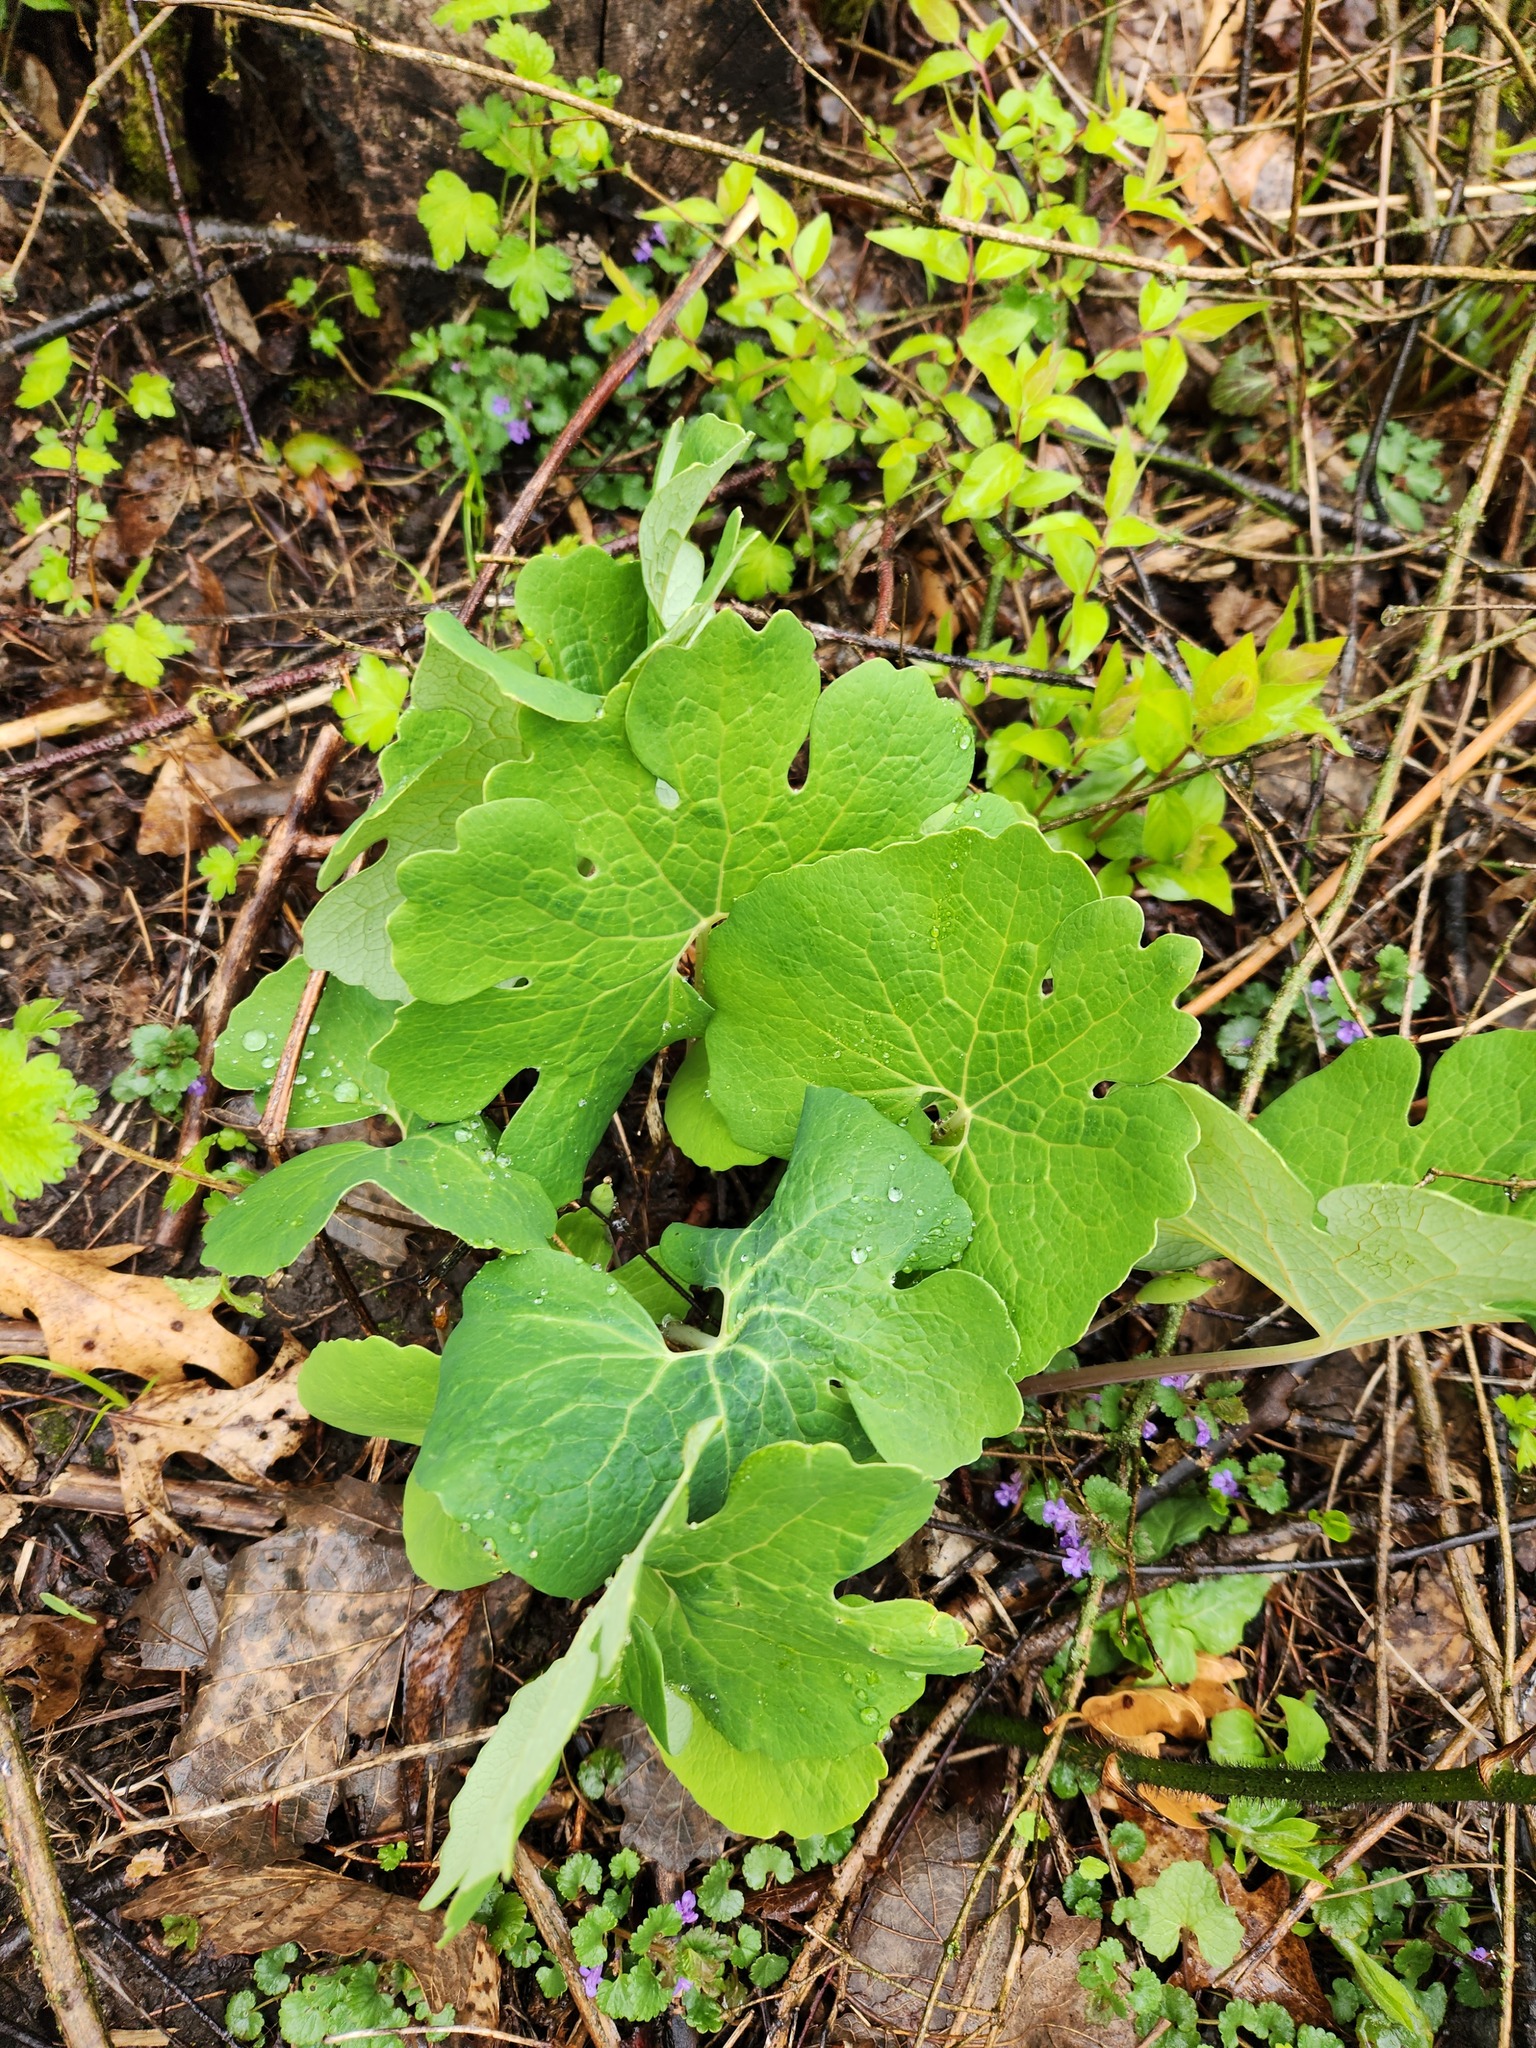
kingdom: Plantae
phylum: Tracheophyta
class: Magnoliopsida
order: Ranunculales
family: Papaveraceae
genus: Sanguinaria
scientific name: Sanguinaria canadensis
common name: Bloodroot
